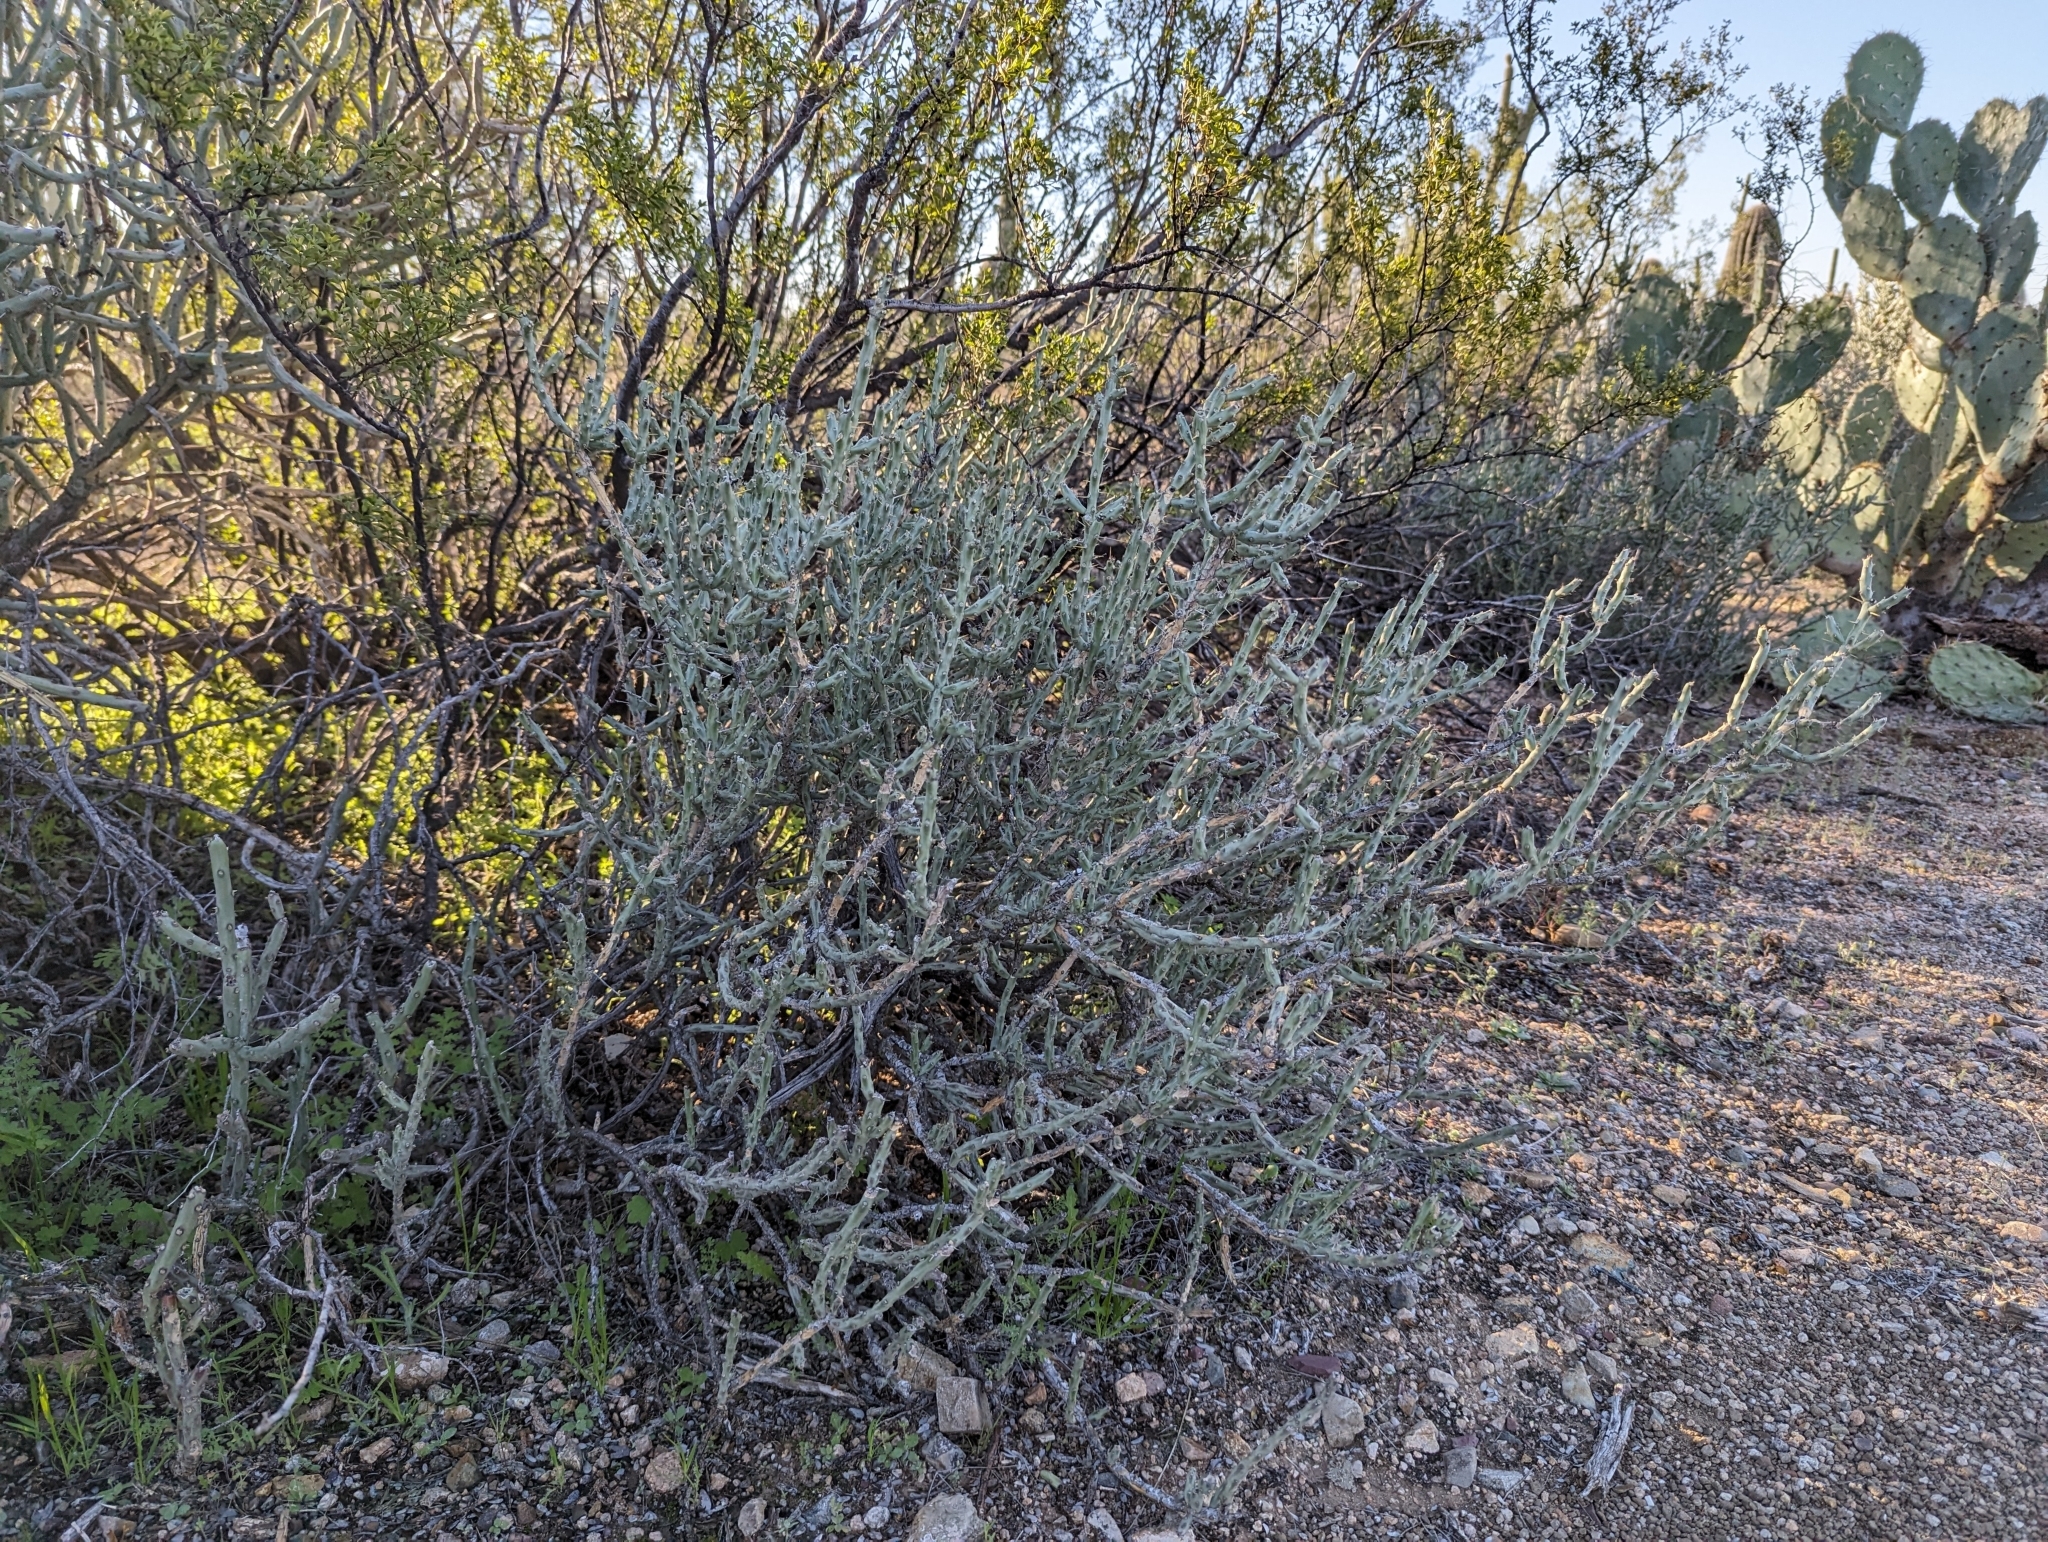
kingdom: Plantae
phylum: Tracheophyta
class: Magnoliopsida
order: Caryophyllales
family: Cactaceae
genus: Cylindropuntia
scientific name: Cylindropuntia leptocaulis
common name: Christmas cactus
